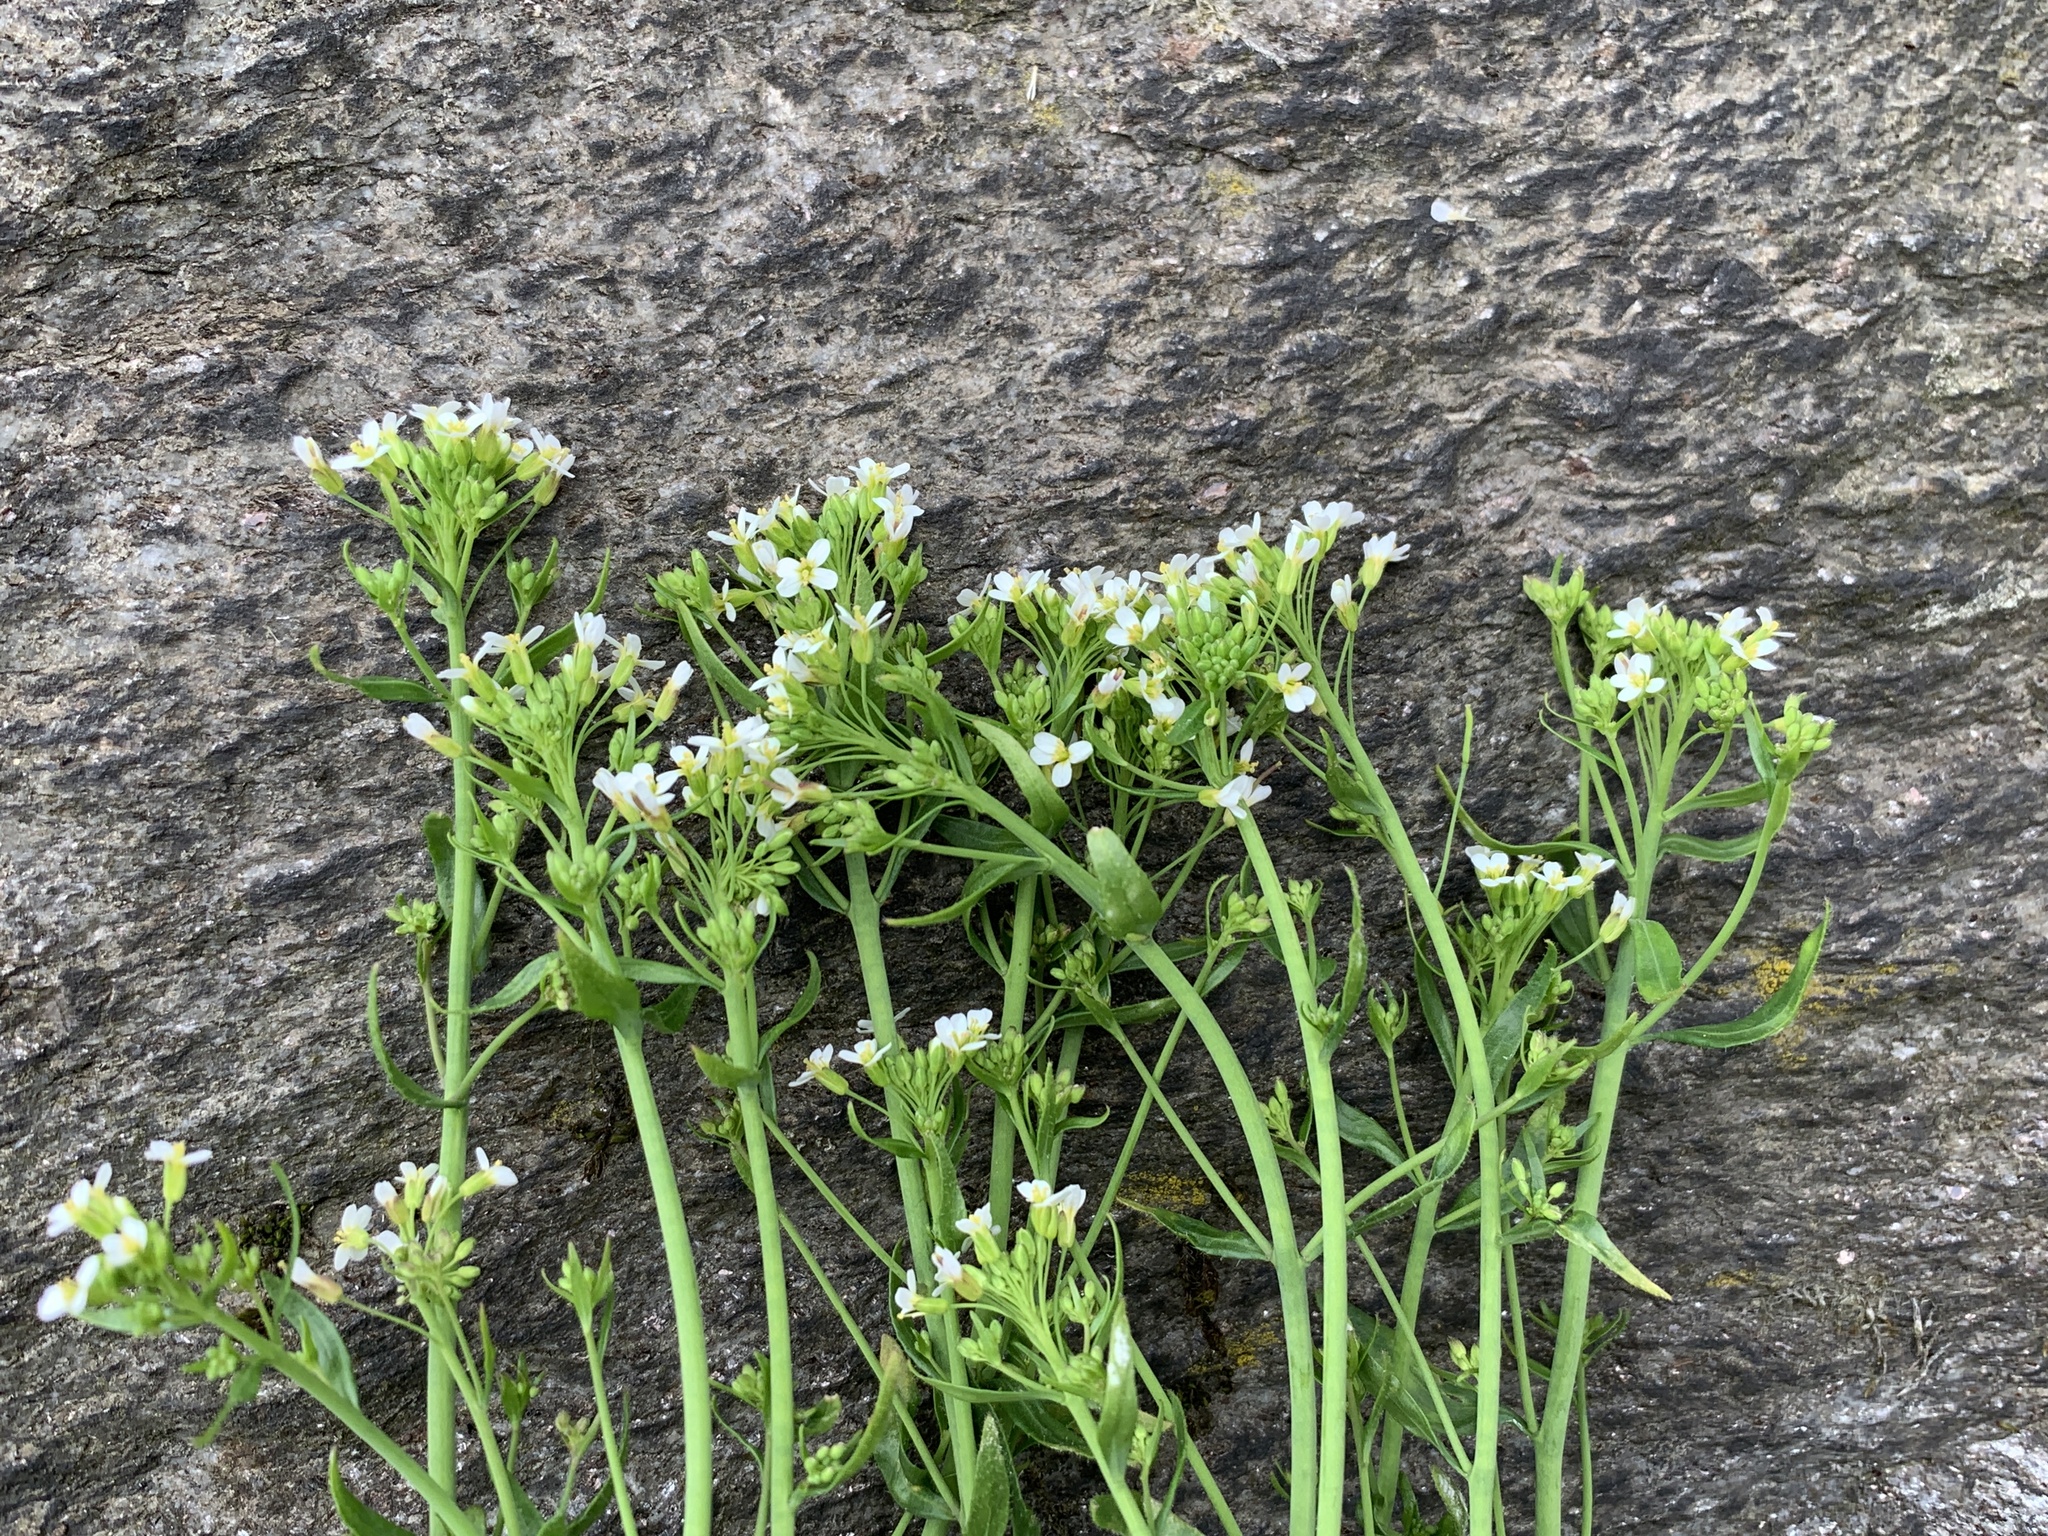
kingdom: Plantae
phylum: Tracheophyta
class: Magnoliopsida
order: Brassicales
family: Brassicaceae
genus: Arabidopsis
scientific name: Arabidopsis thaliana
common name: Thale cress
